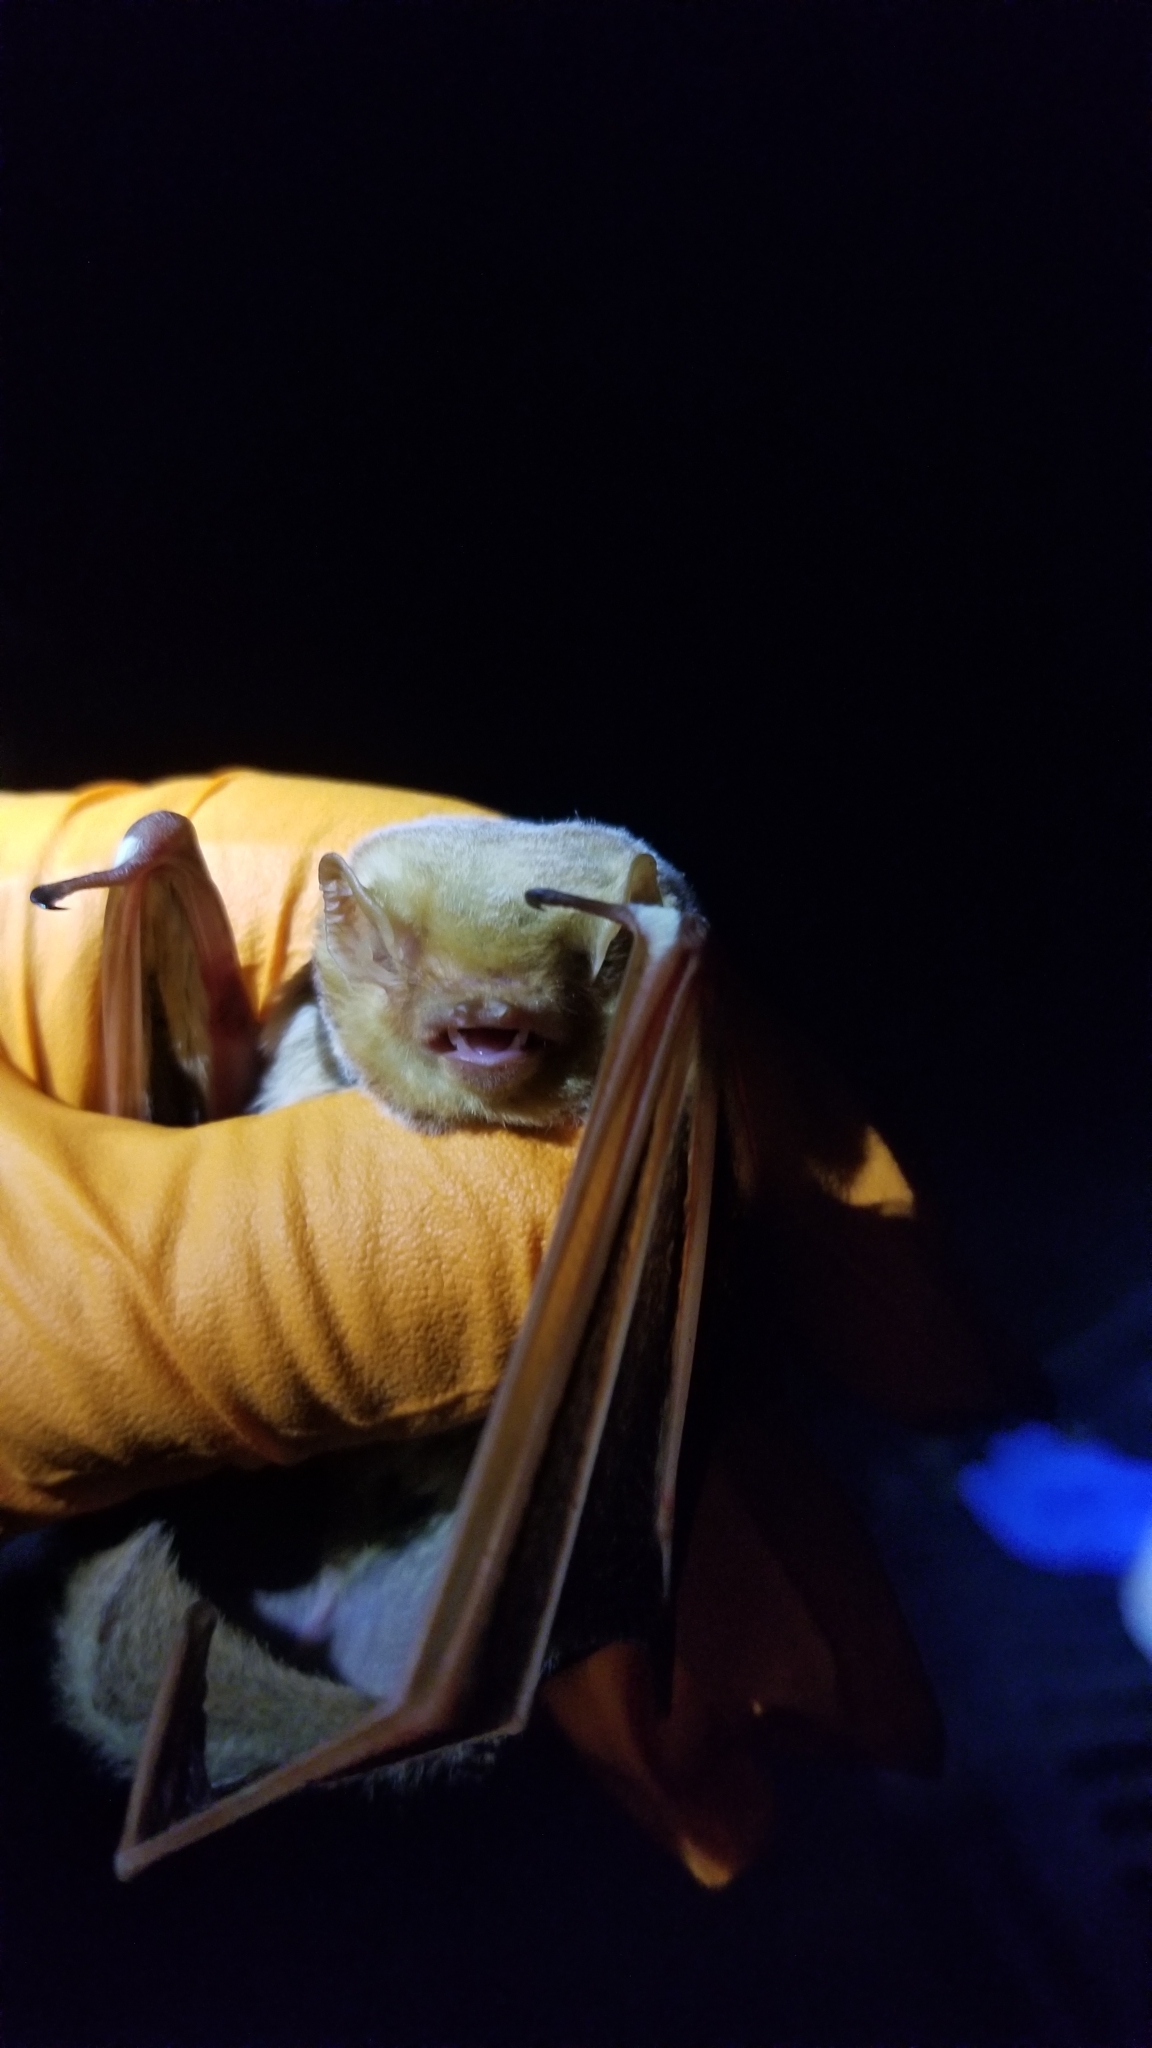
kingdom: Animalia
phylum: Chordata
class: Mammalia
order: Chiroptera
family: Vespertilionidae
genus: Lasiurus
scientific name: Lasiurus borealis
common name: Eastern red bat
